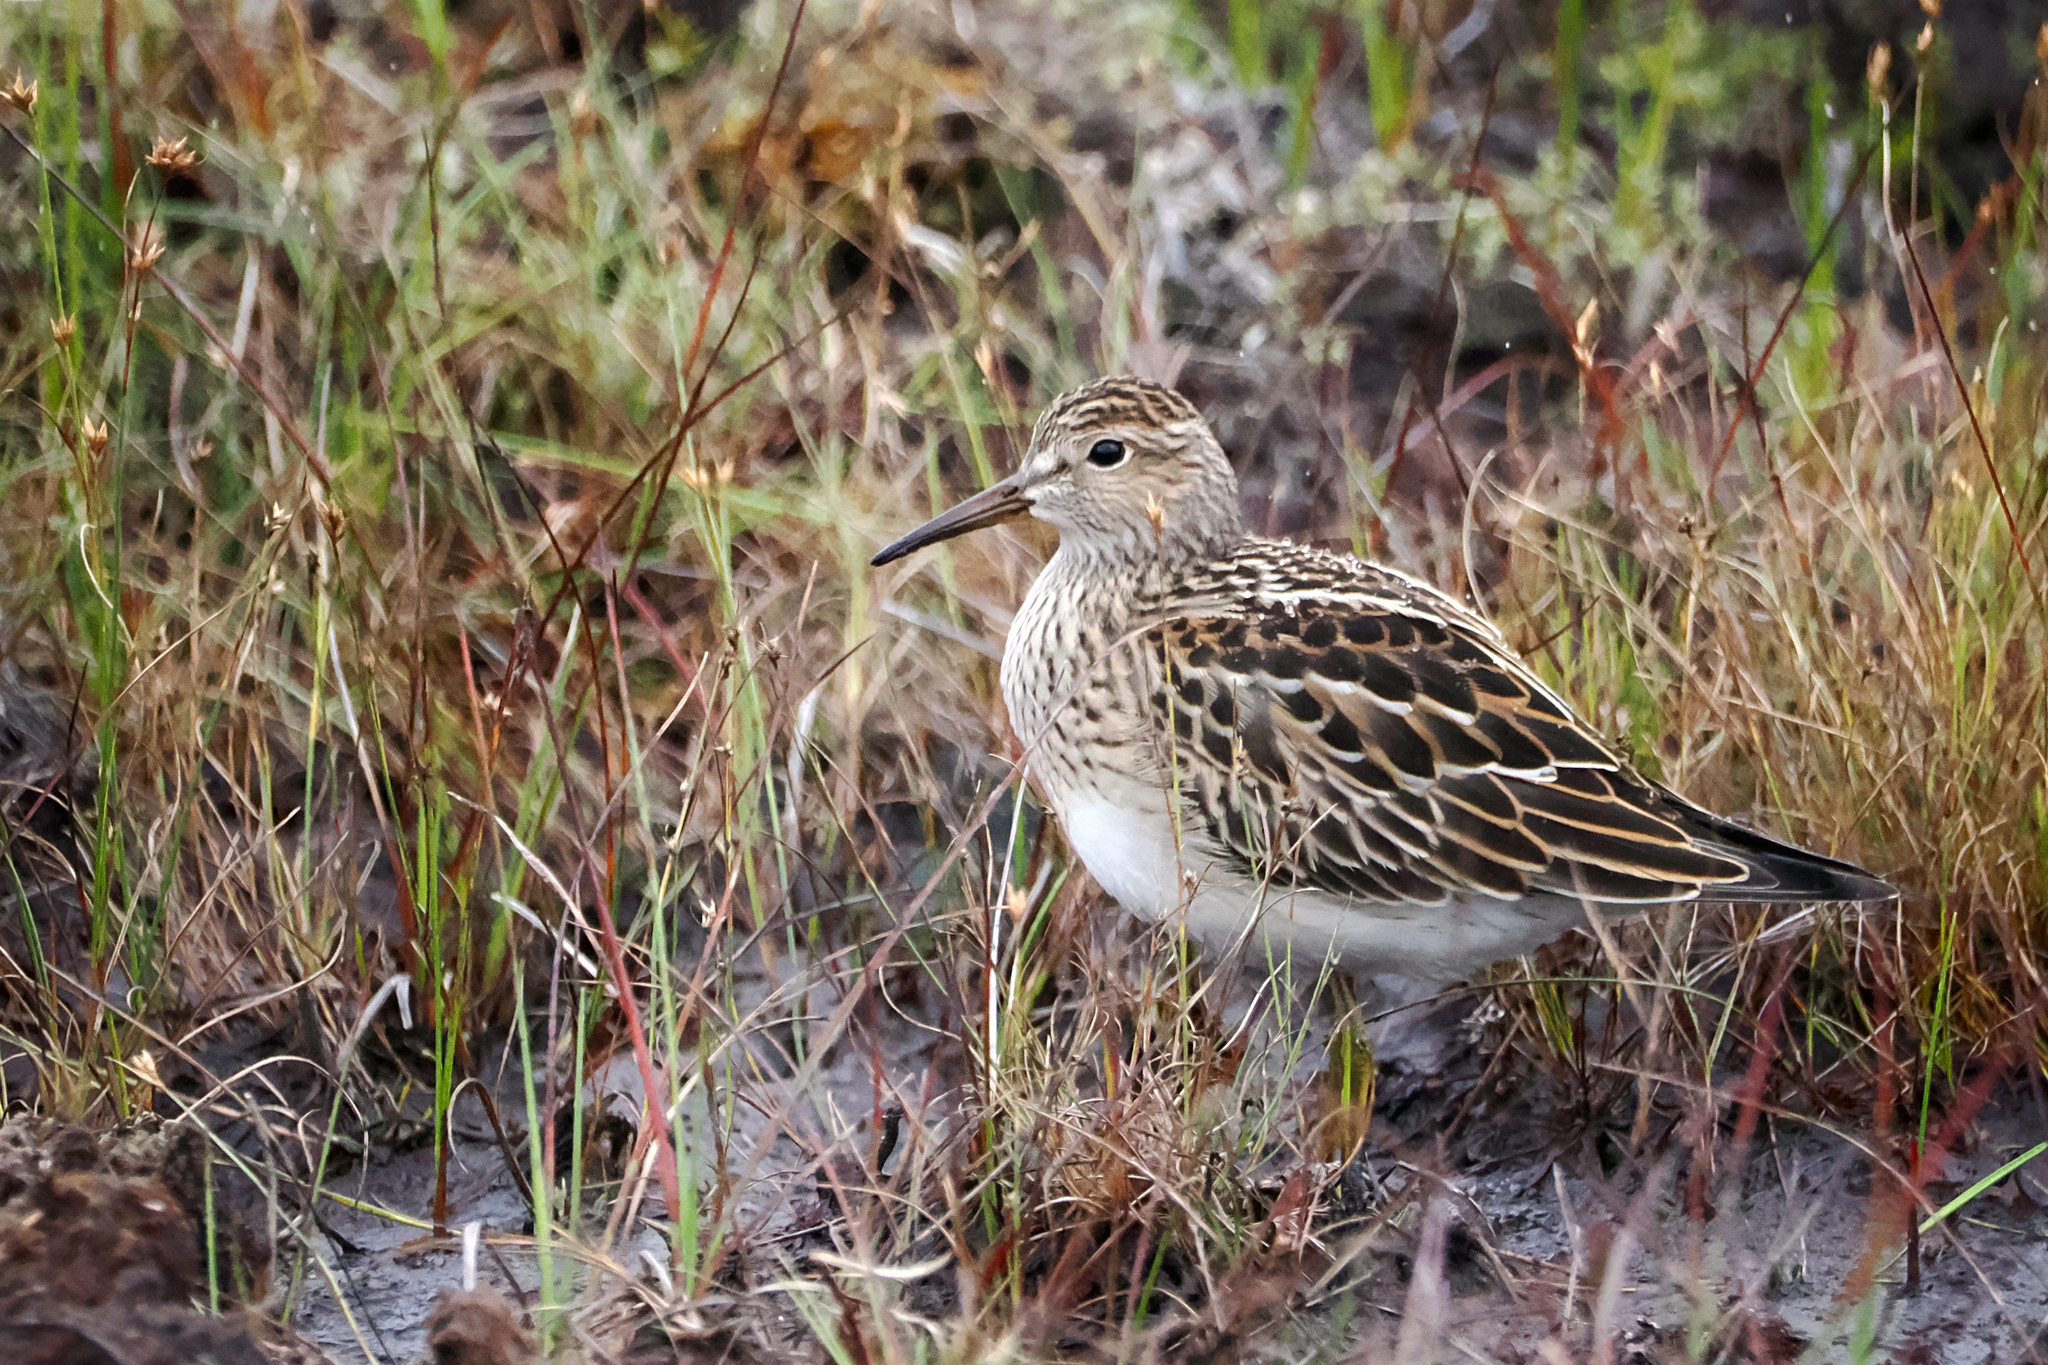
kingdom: Animalia
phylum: Chordata
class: Aves
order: Charadriiformes
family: Scolopacidae
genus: Calidris
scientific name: Calidris melanotos
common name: Pectoral sandpiper
